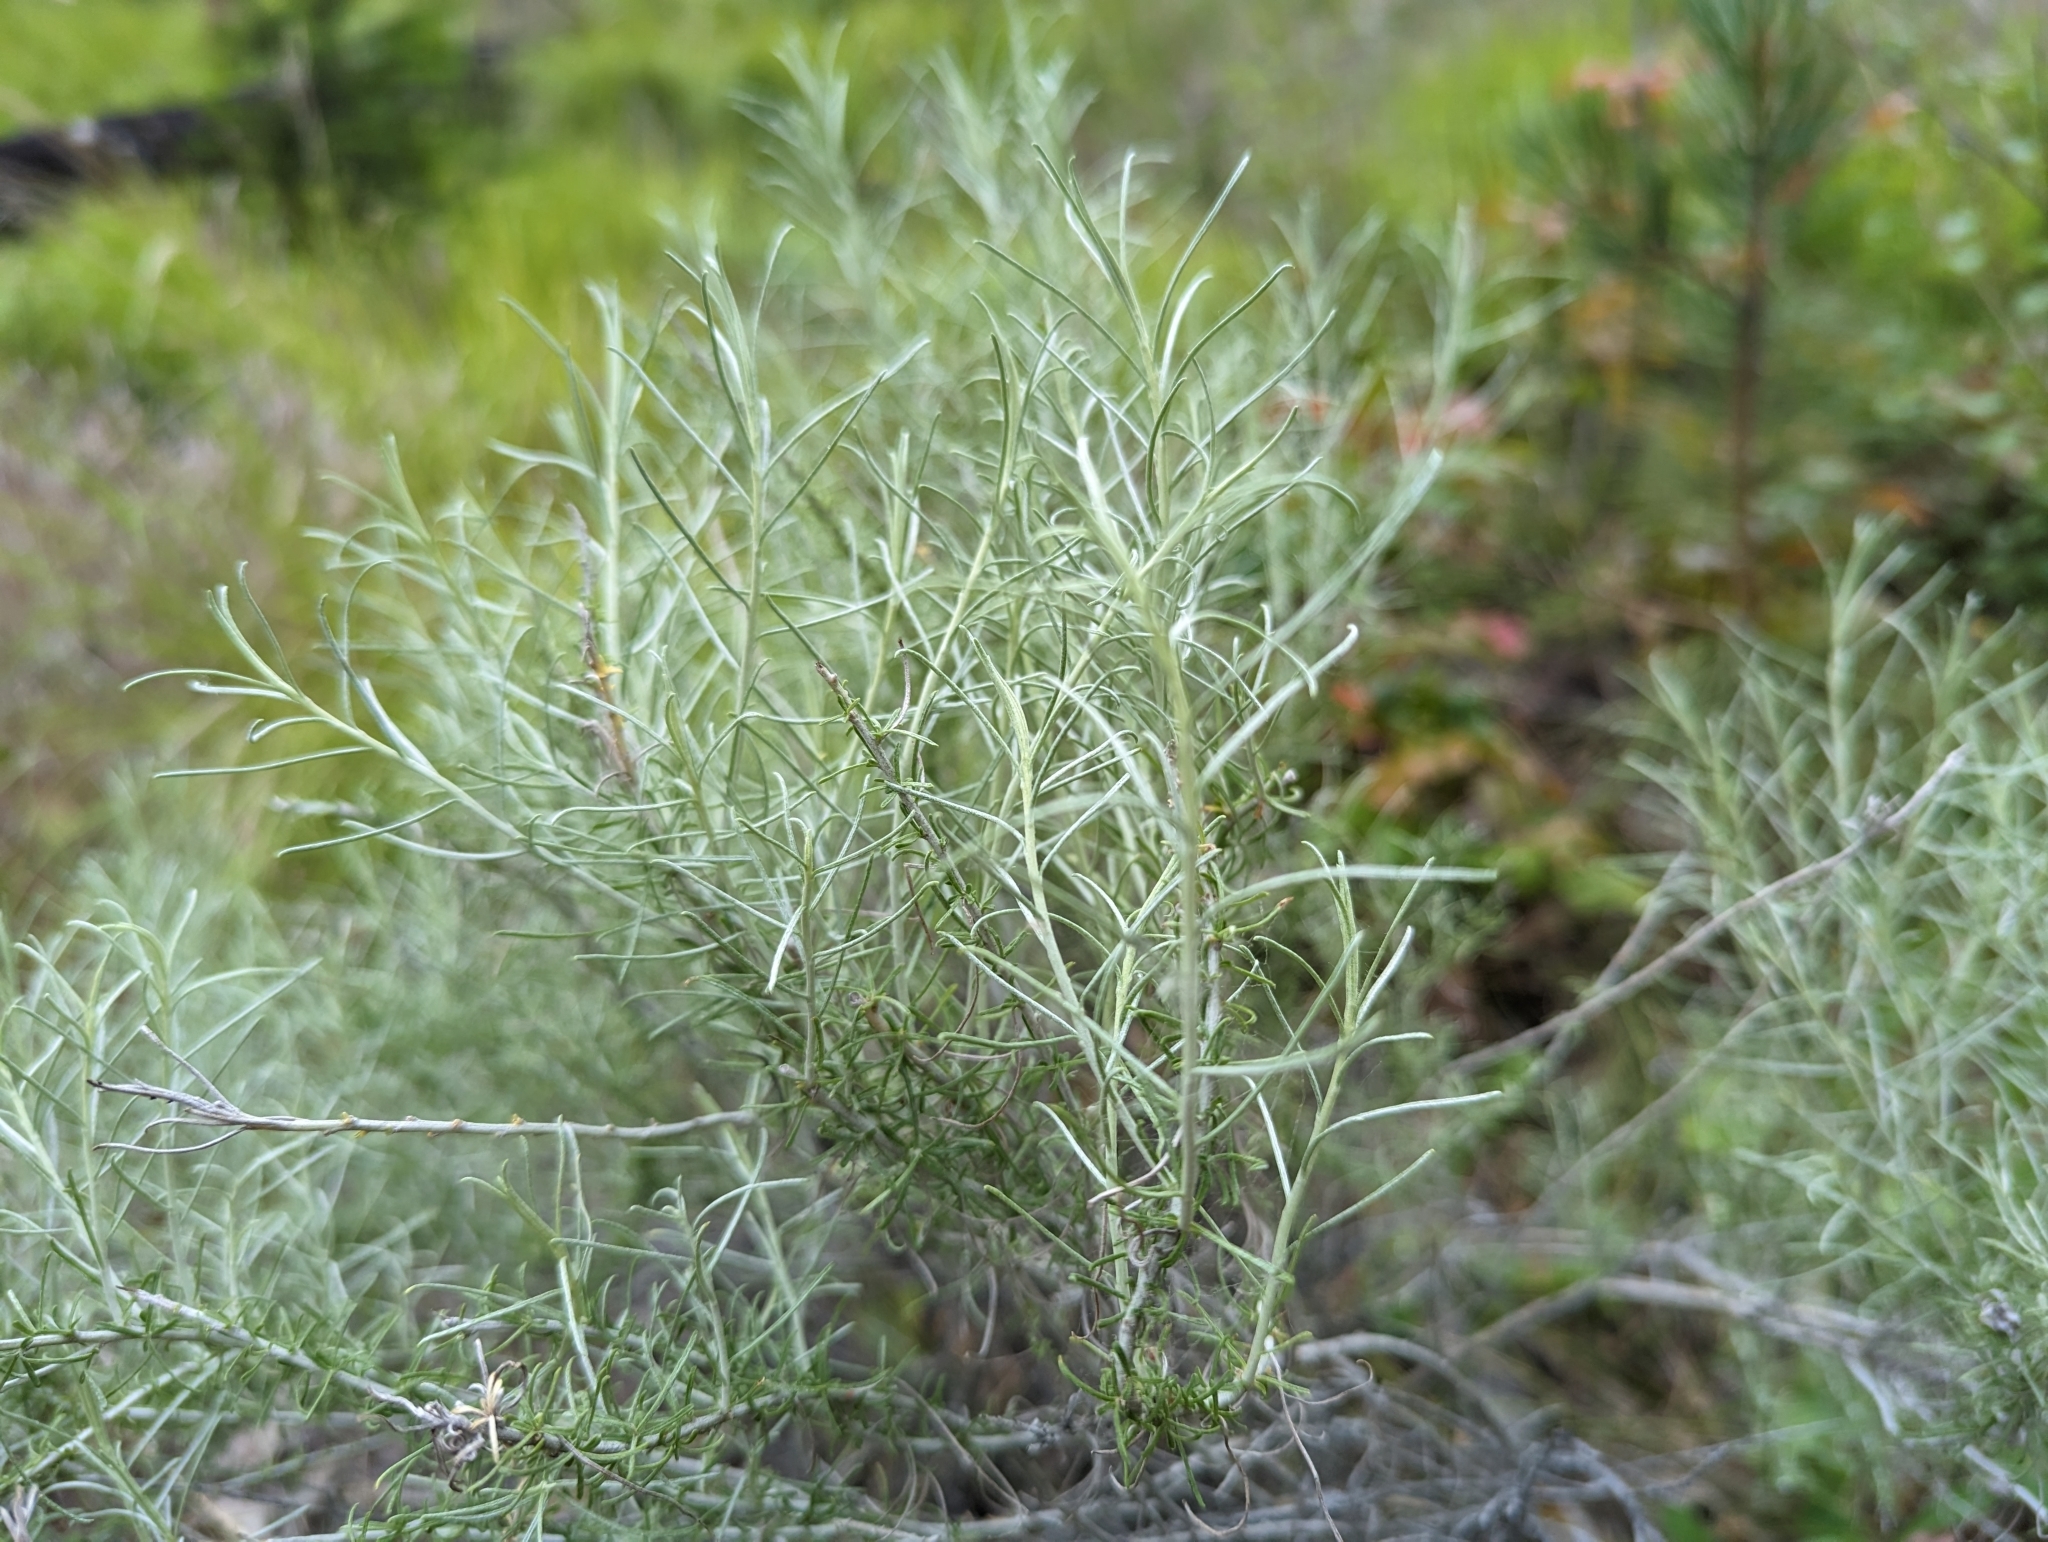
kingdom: Plantae
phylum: Tracheophyta
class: Magnoliopsida
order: Asterales
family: Asteraceae
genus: Ericameria
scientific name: Ericameria nauseosa
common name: Rubber rabbitbrush
